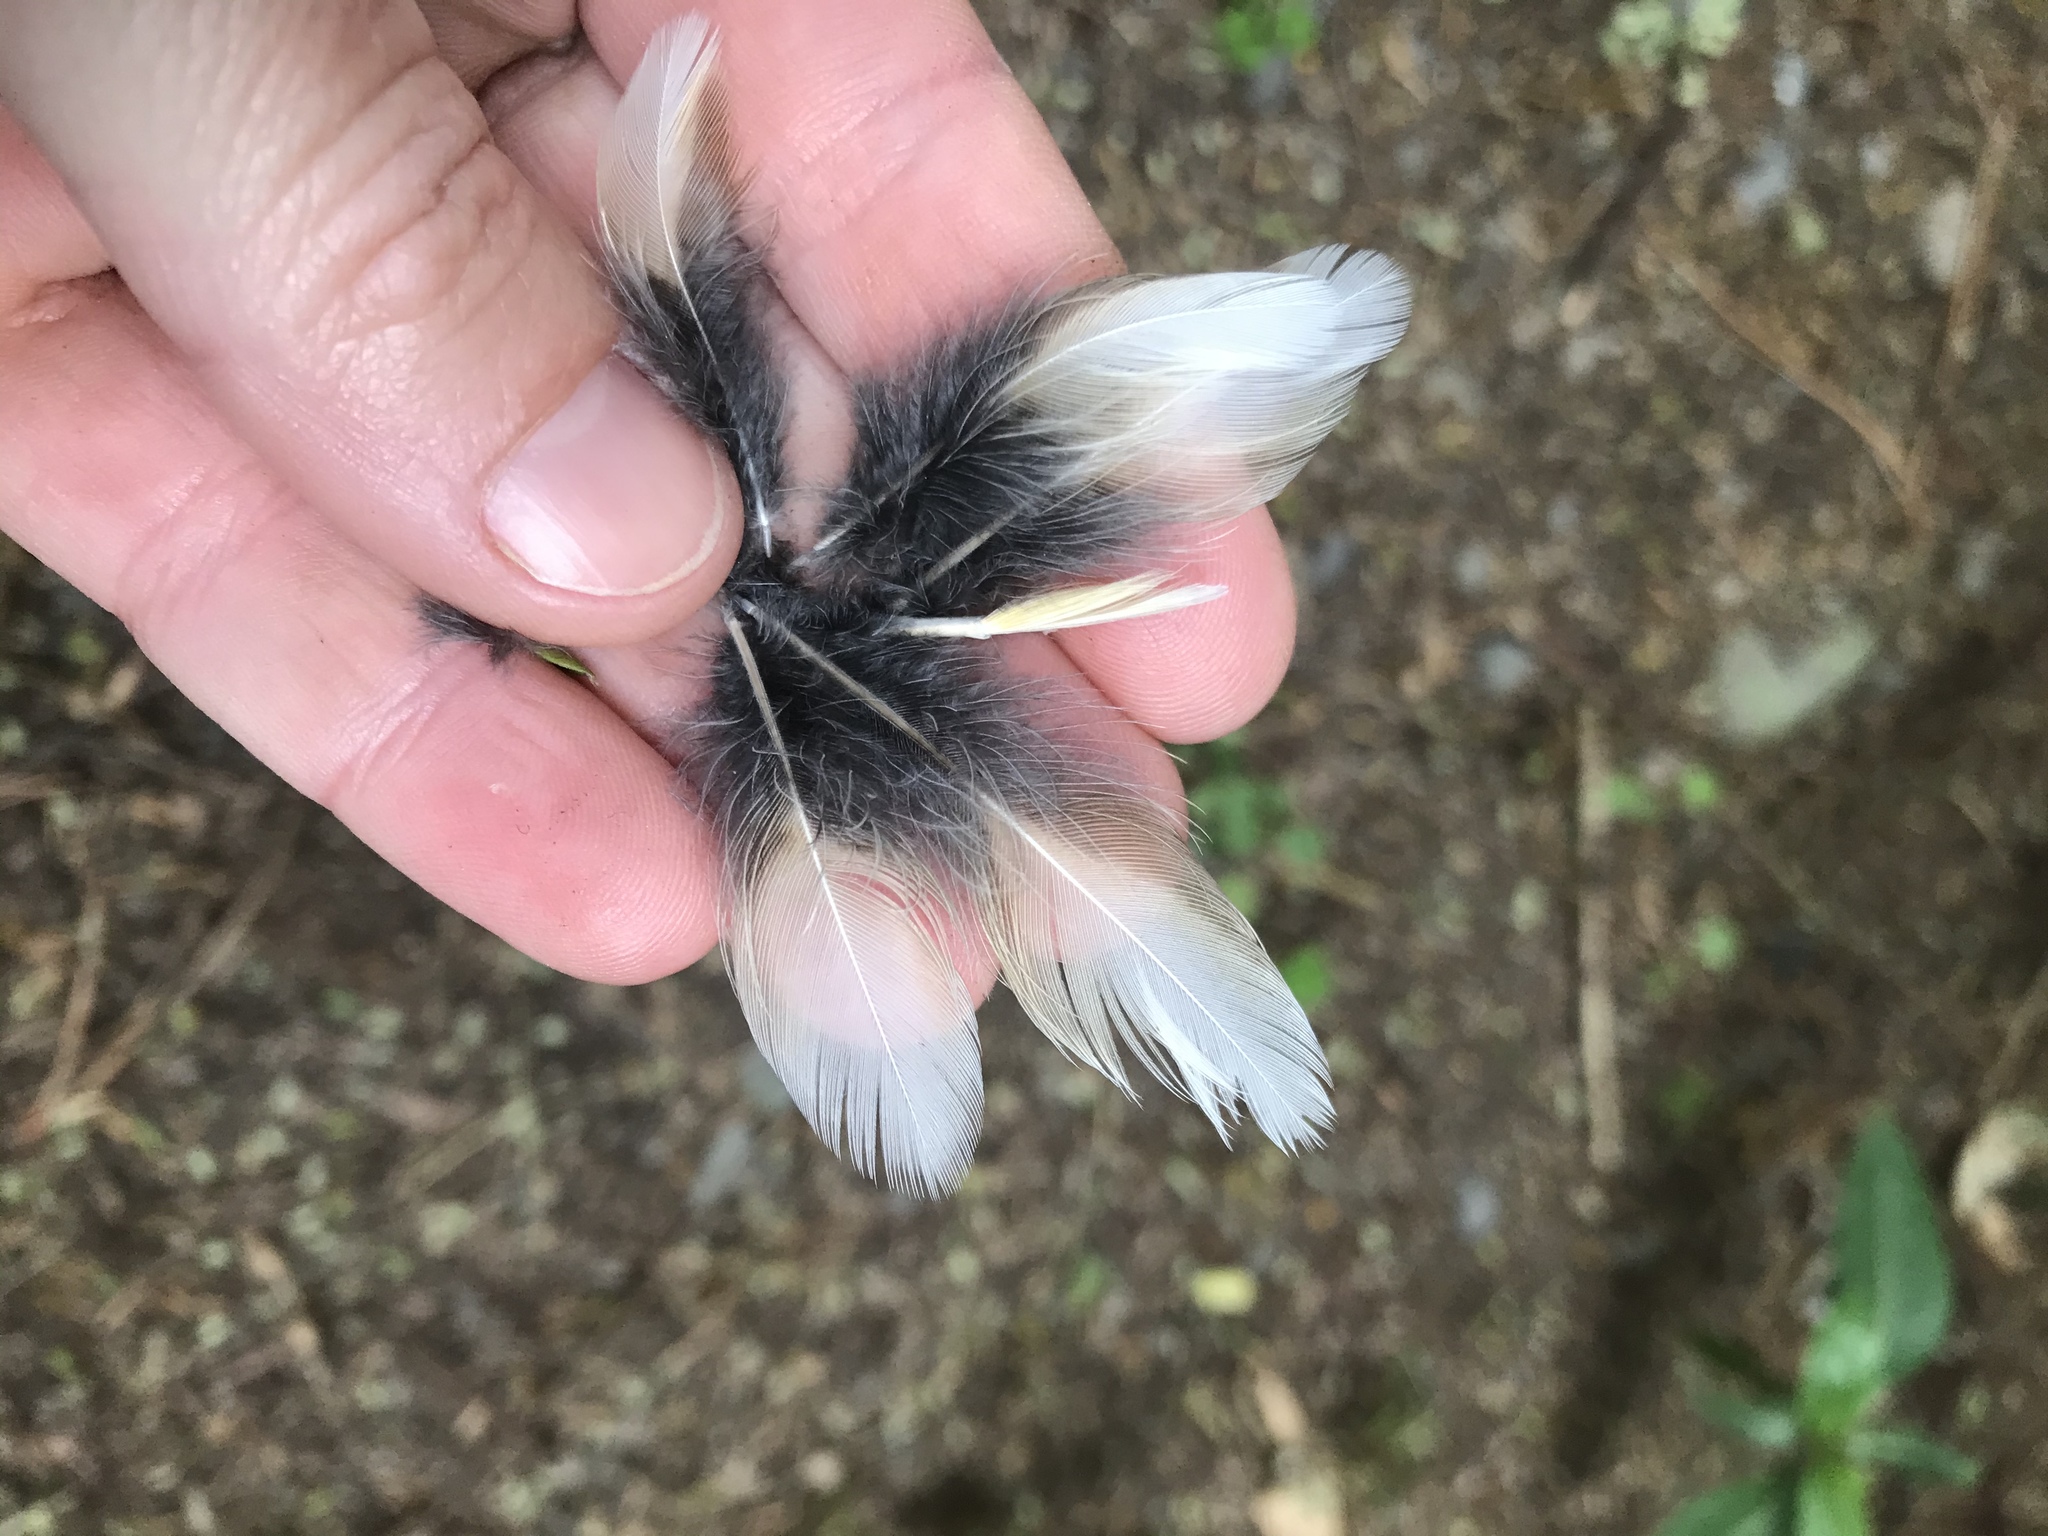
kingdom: Animalia
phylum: Chordata
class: Aves
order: Passeriformes
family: Turdidae
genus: Turdus
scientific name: Turdus philomelos
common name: Song thrush
